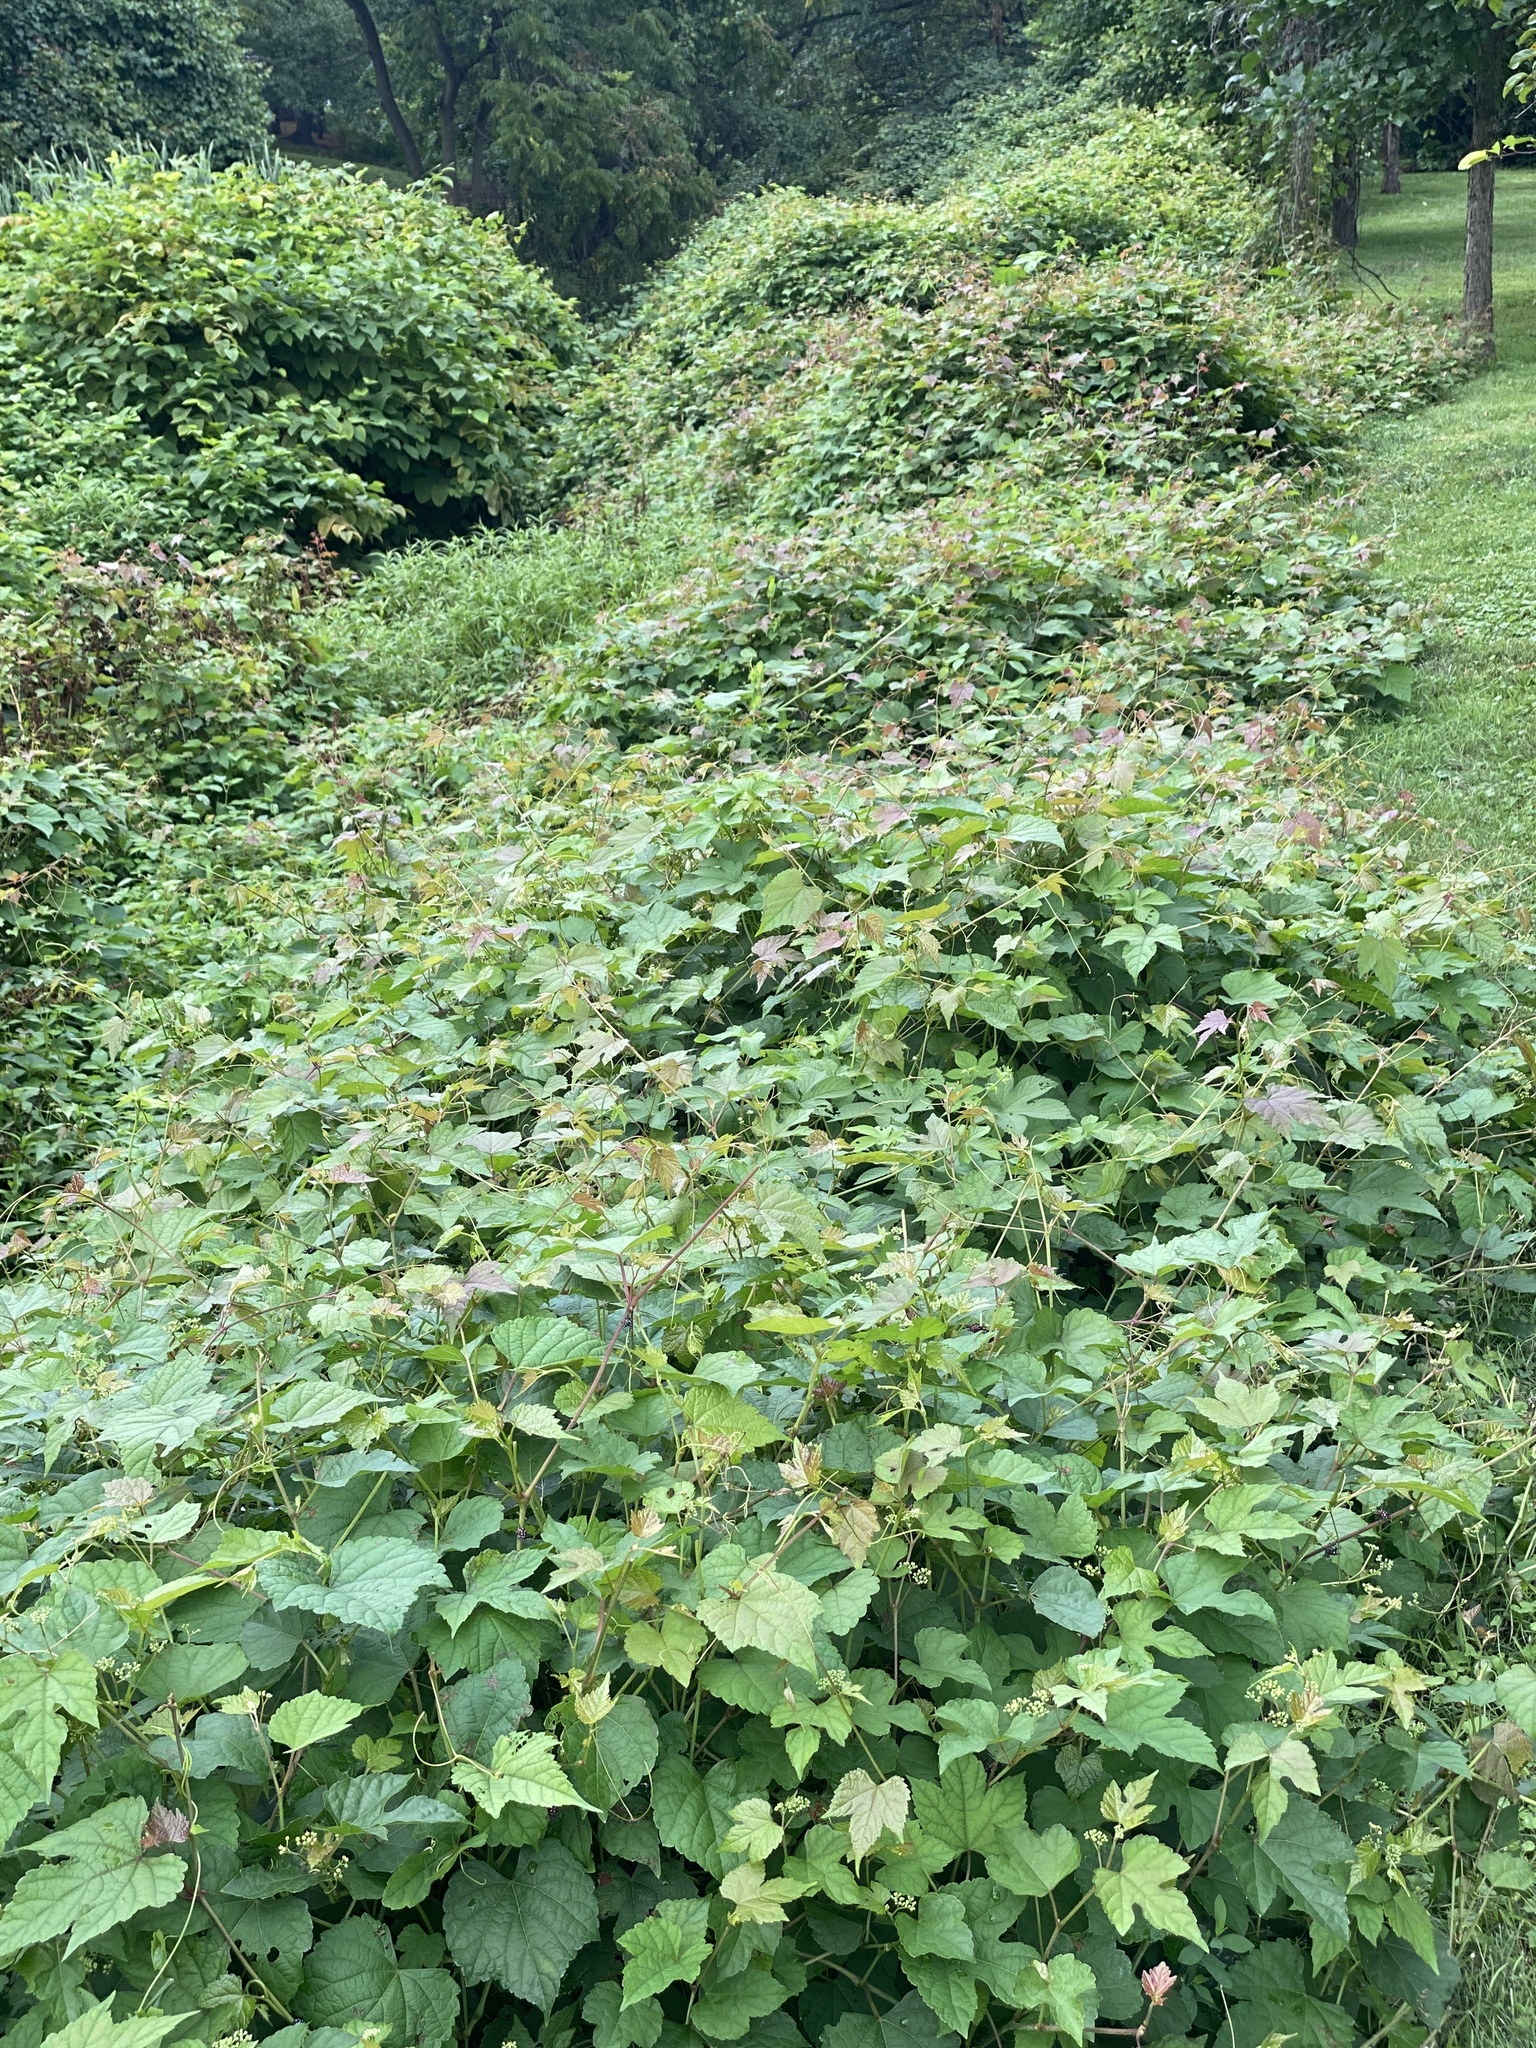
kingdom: Plantae
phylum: Tracheophyta
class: Magnoliopsida
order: Vitales
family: Vitaceae
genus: Ampelopsis
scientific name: Ampelopsis glandulosa
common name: Amur peppervine
